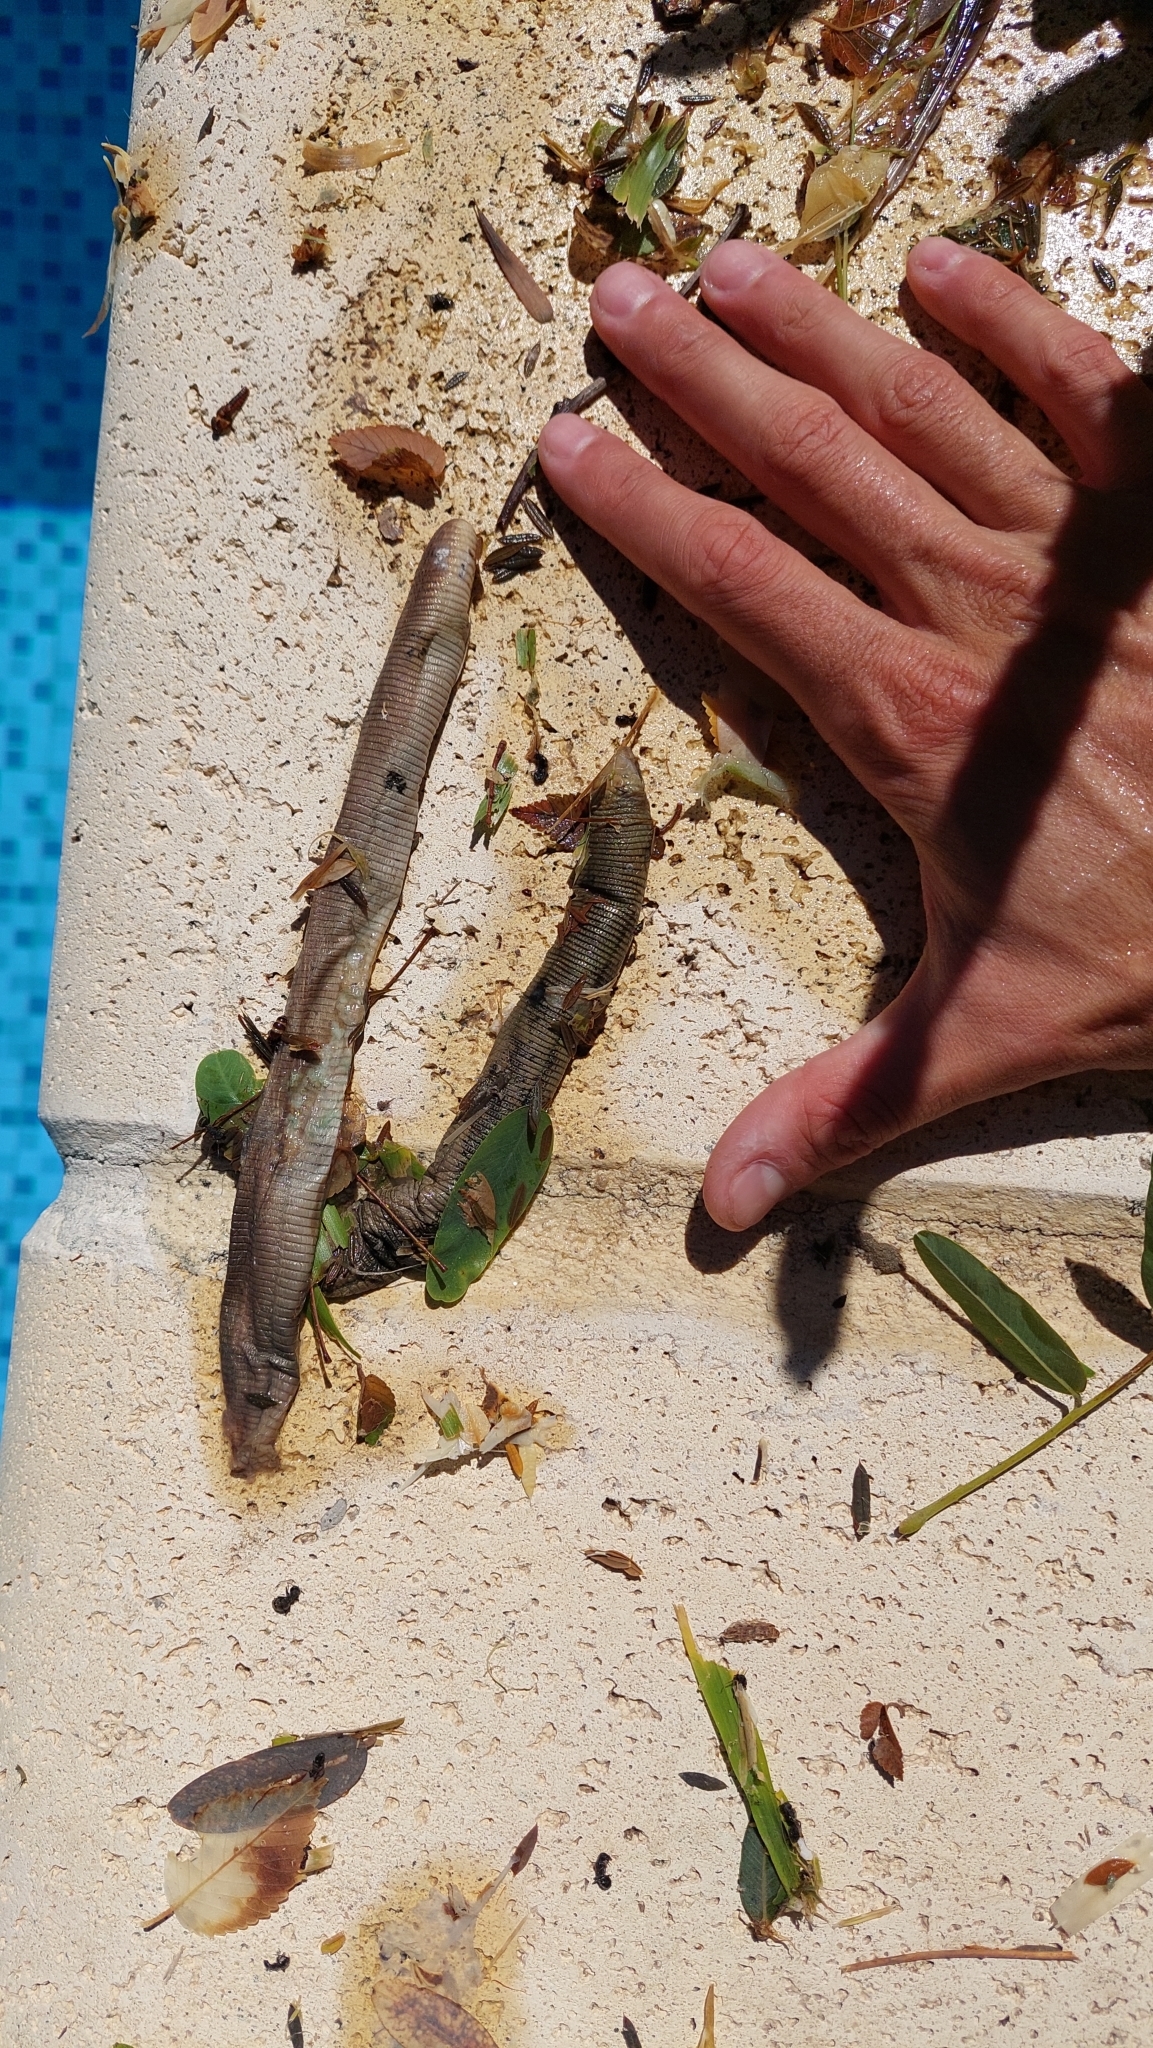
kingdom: Animalia
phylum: Chordata
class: Squamata
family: Amphisbaenidae
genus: Leposternon
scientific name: Leposternon microcephalum
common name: Smallhead worm lizard
